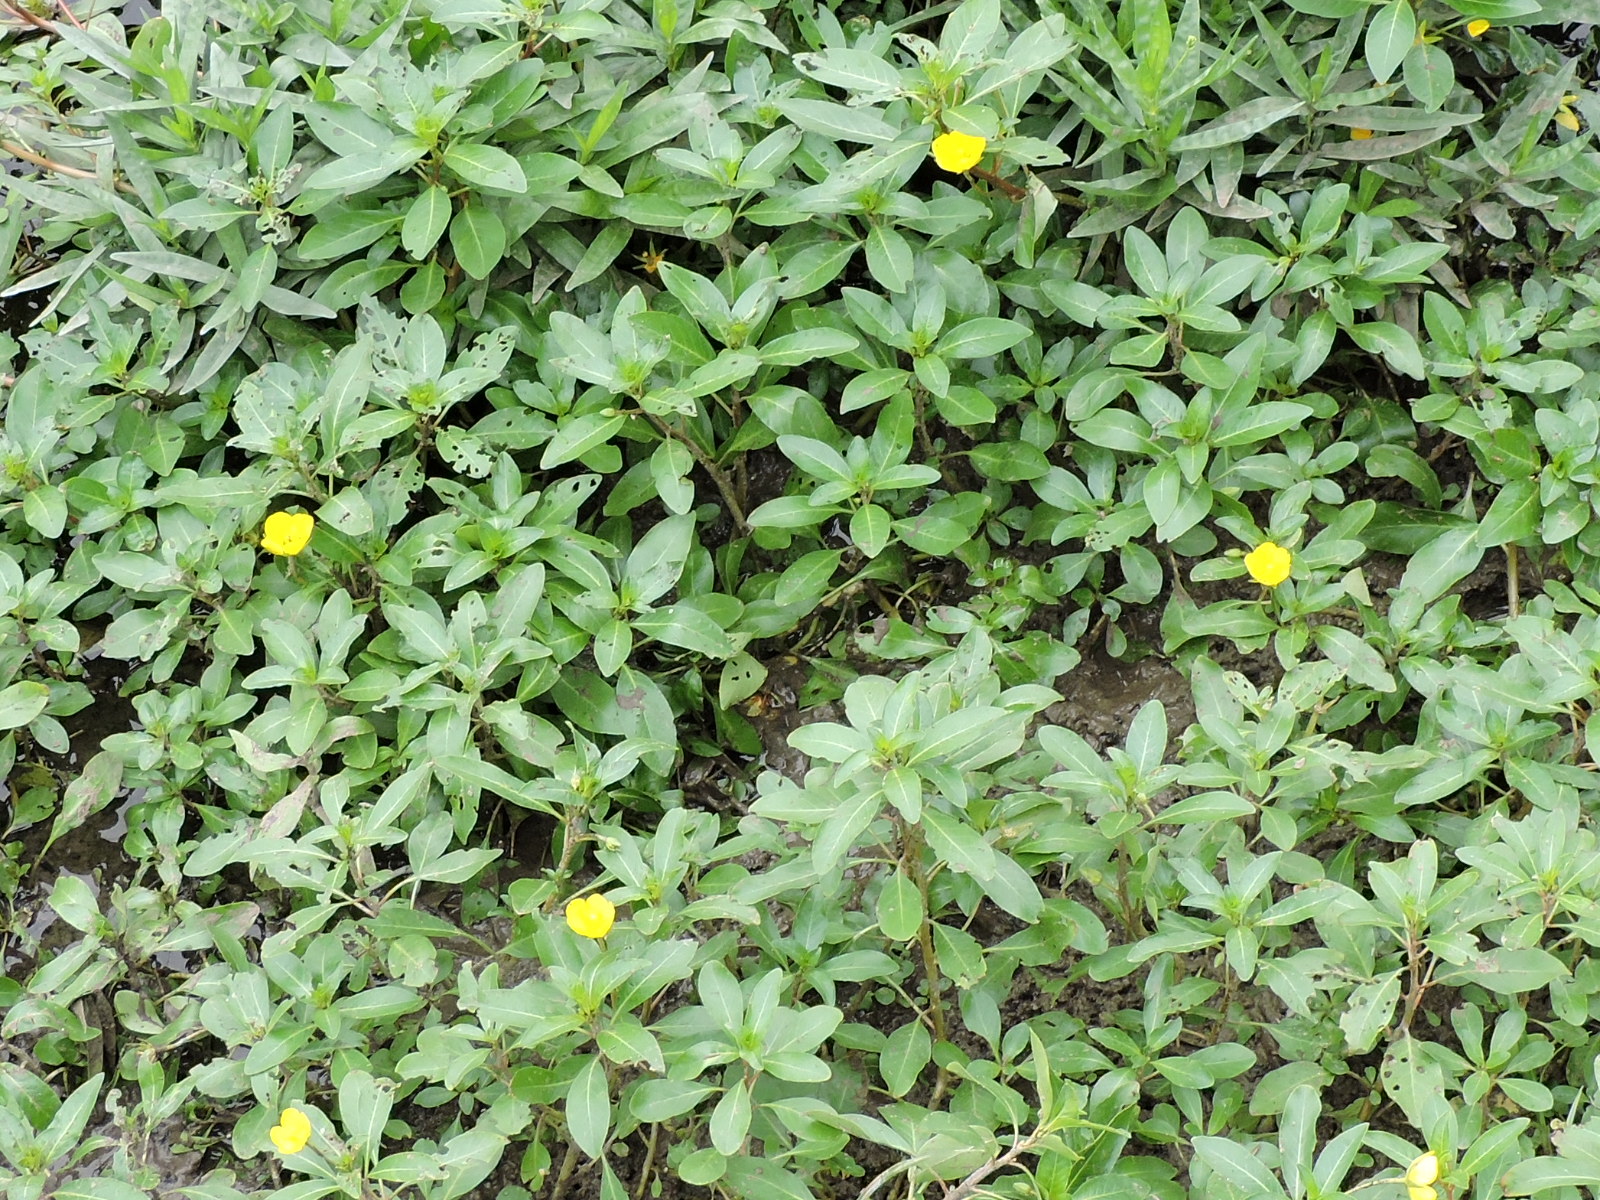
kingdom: Plantae
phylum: Tracheophyta
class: Magnoliopsida
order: Myrtales
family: Onagraceae
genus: Ludwigia
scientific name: Ludwigia peploides
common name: Floating primrose-willow
